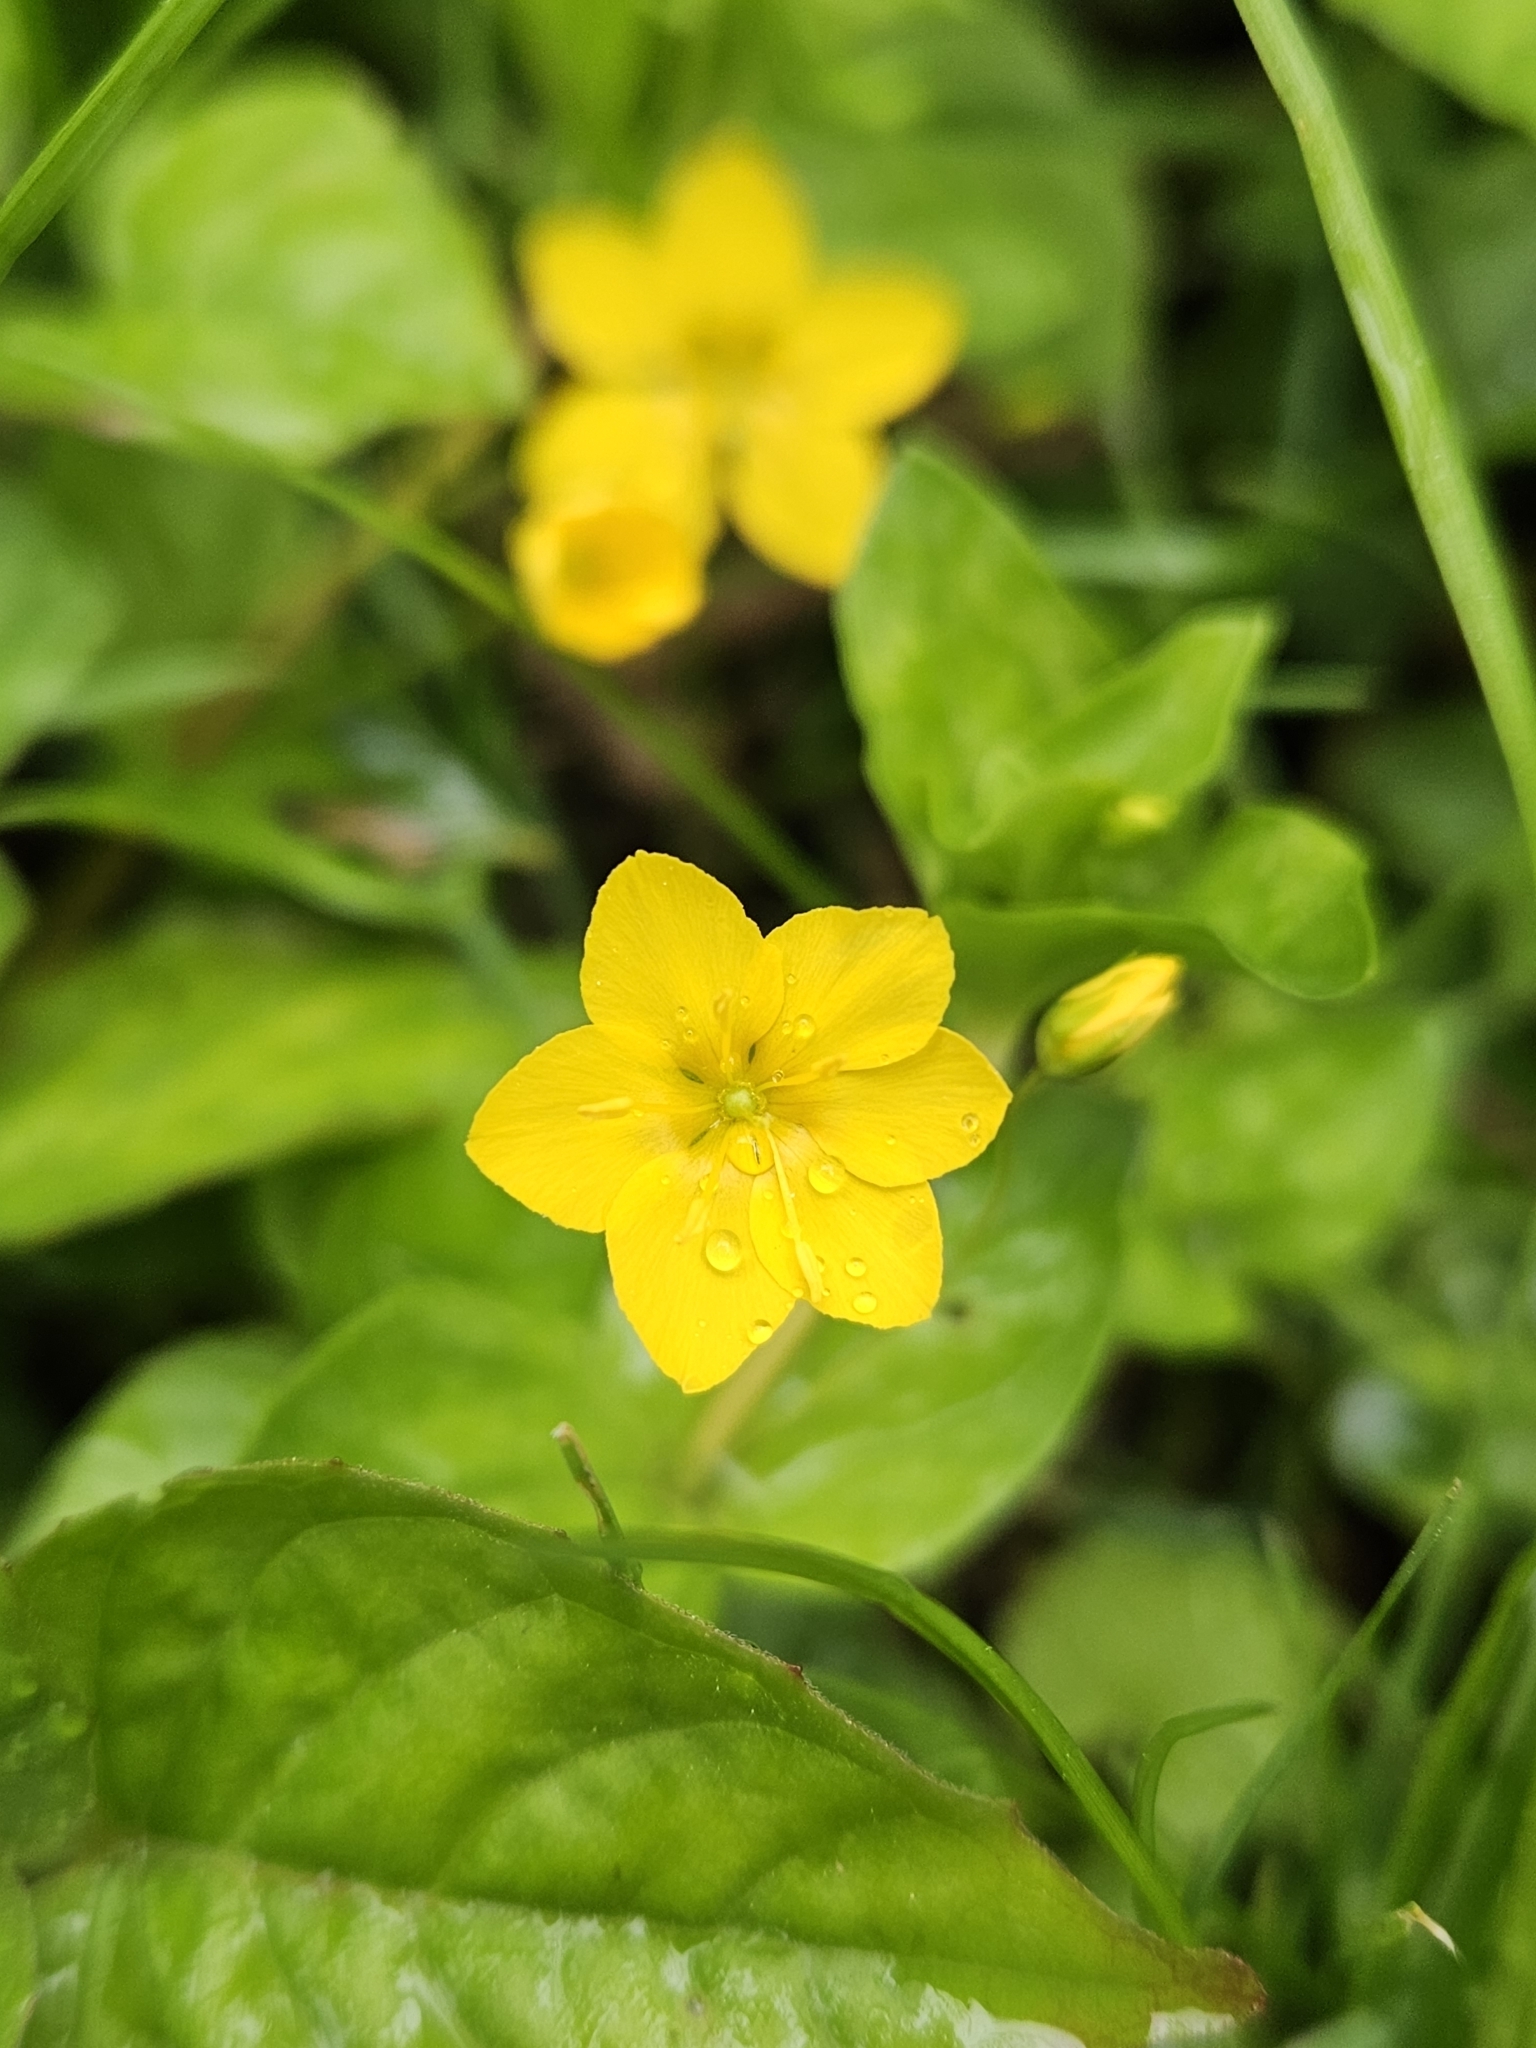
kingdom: Plantae
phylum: Tracheophyta
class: Magnoliopsida
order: Ericales
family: Primulaceae
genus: Lysimachia
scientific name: Lysimachia nemorum
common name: Yellow pimpernel
